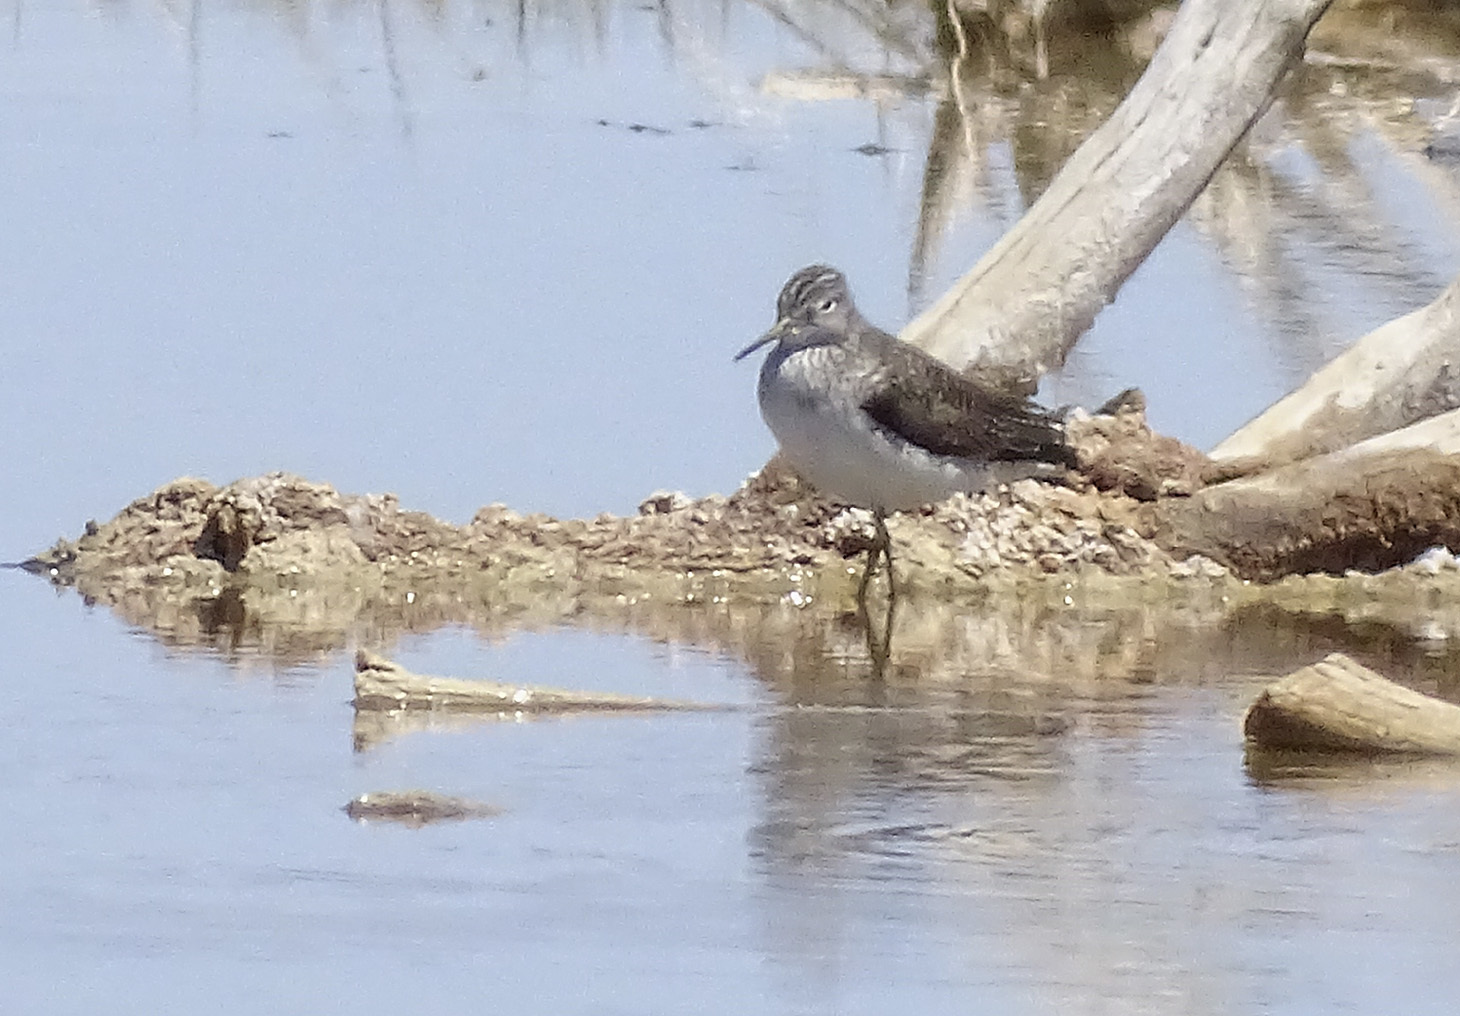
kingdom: Animalia
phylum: Chordata
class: Aves
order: Charadriiformes
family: Scolopacidae
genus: Tringa
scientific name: Tringa solitaria
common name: Solitary sandpiper
